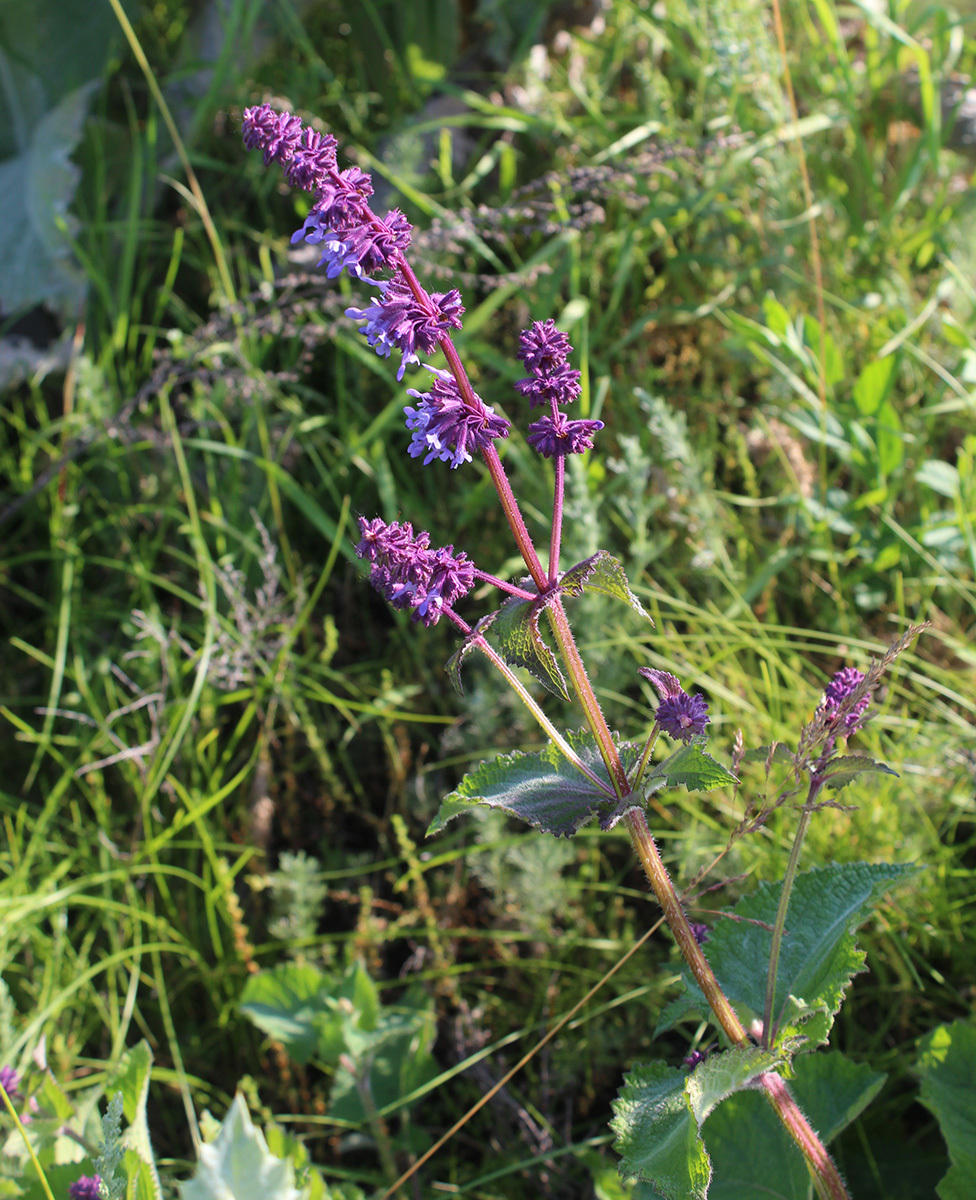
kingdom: Plantae
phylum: Tracheophyta
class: Magnoliopsida
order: Lamiales
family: Lamiaceae
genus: Salvia
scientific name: Salvia verticillata
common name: Whorled clary
